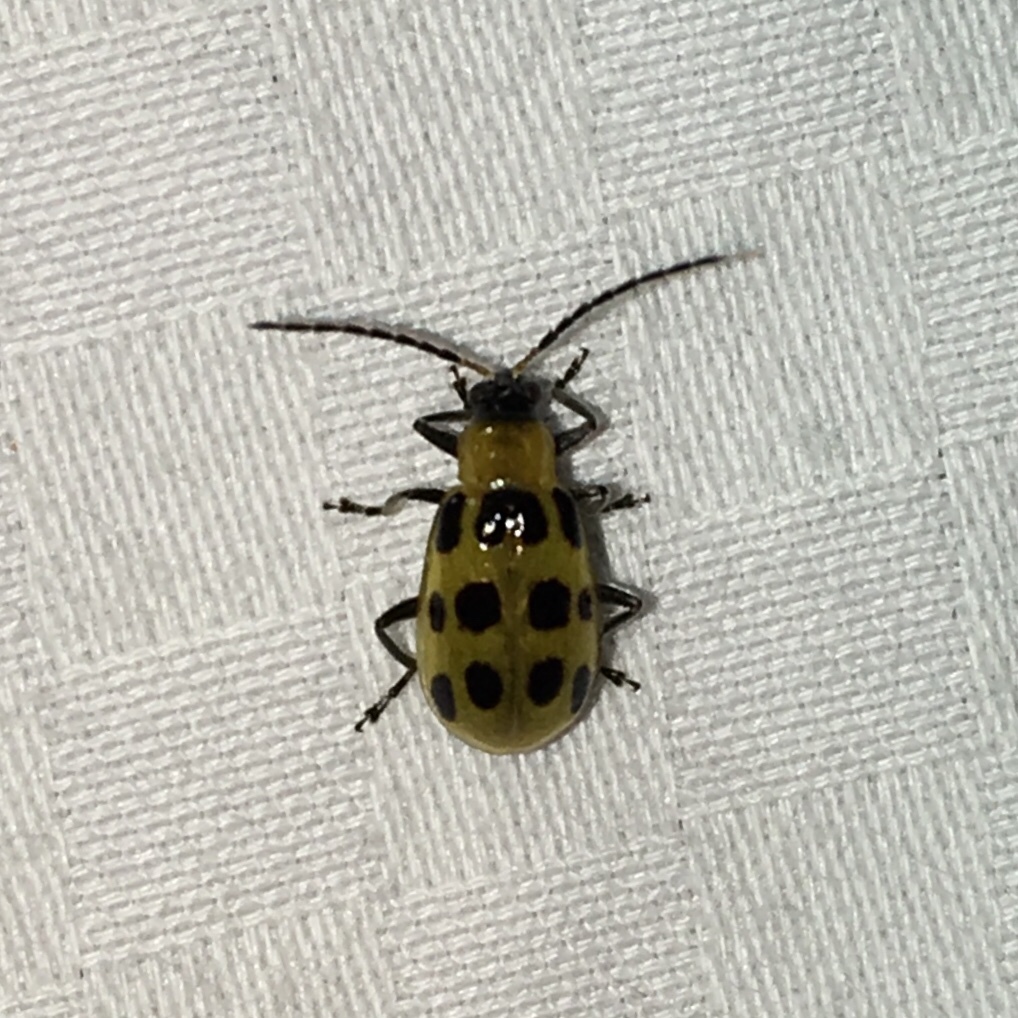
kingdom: Animalia
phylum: Arthropoda
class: Insecta
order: Coleoptera
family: Chrysomelidae
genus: Diabrotica
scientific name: Diabrotica undecimpunctata
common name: Spotted cucumber beetle
